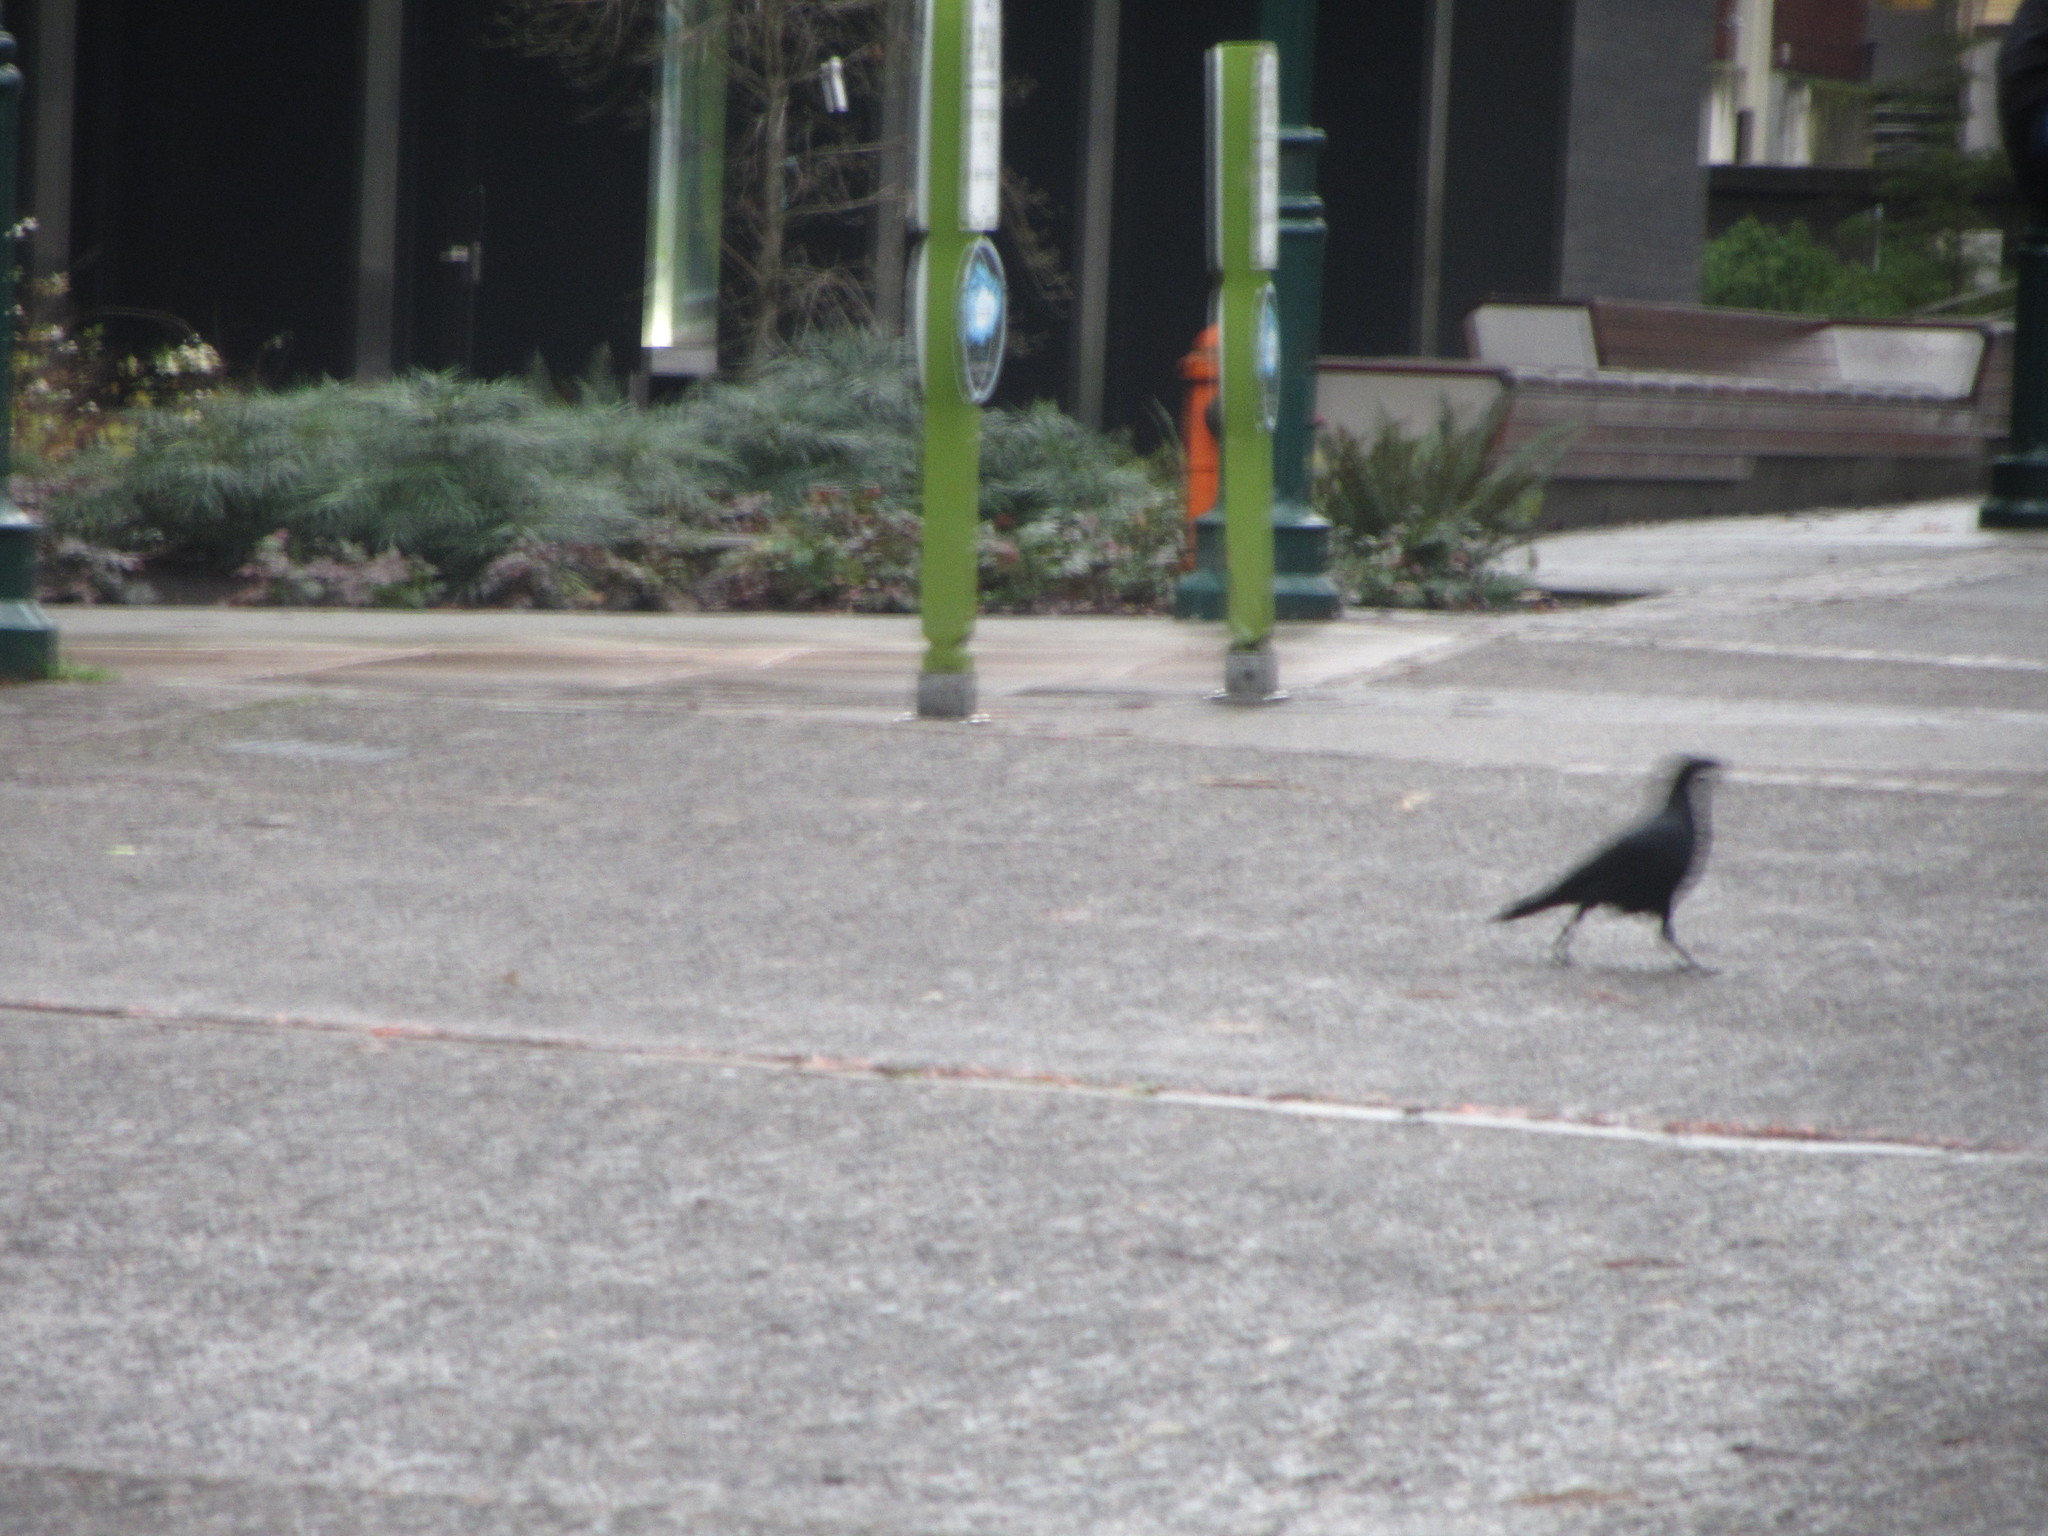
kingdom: Animalia
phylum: Chordata
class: Aves
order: Passeriformes
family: Corvidae
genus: Corvus
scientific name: Corvus brachyrhynchos
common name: American crow
